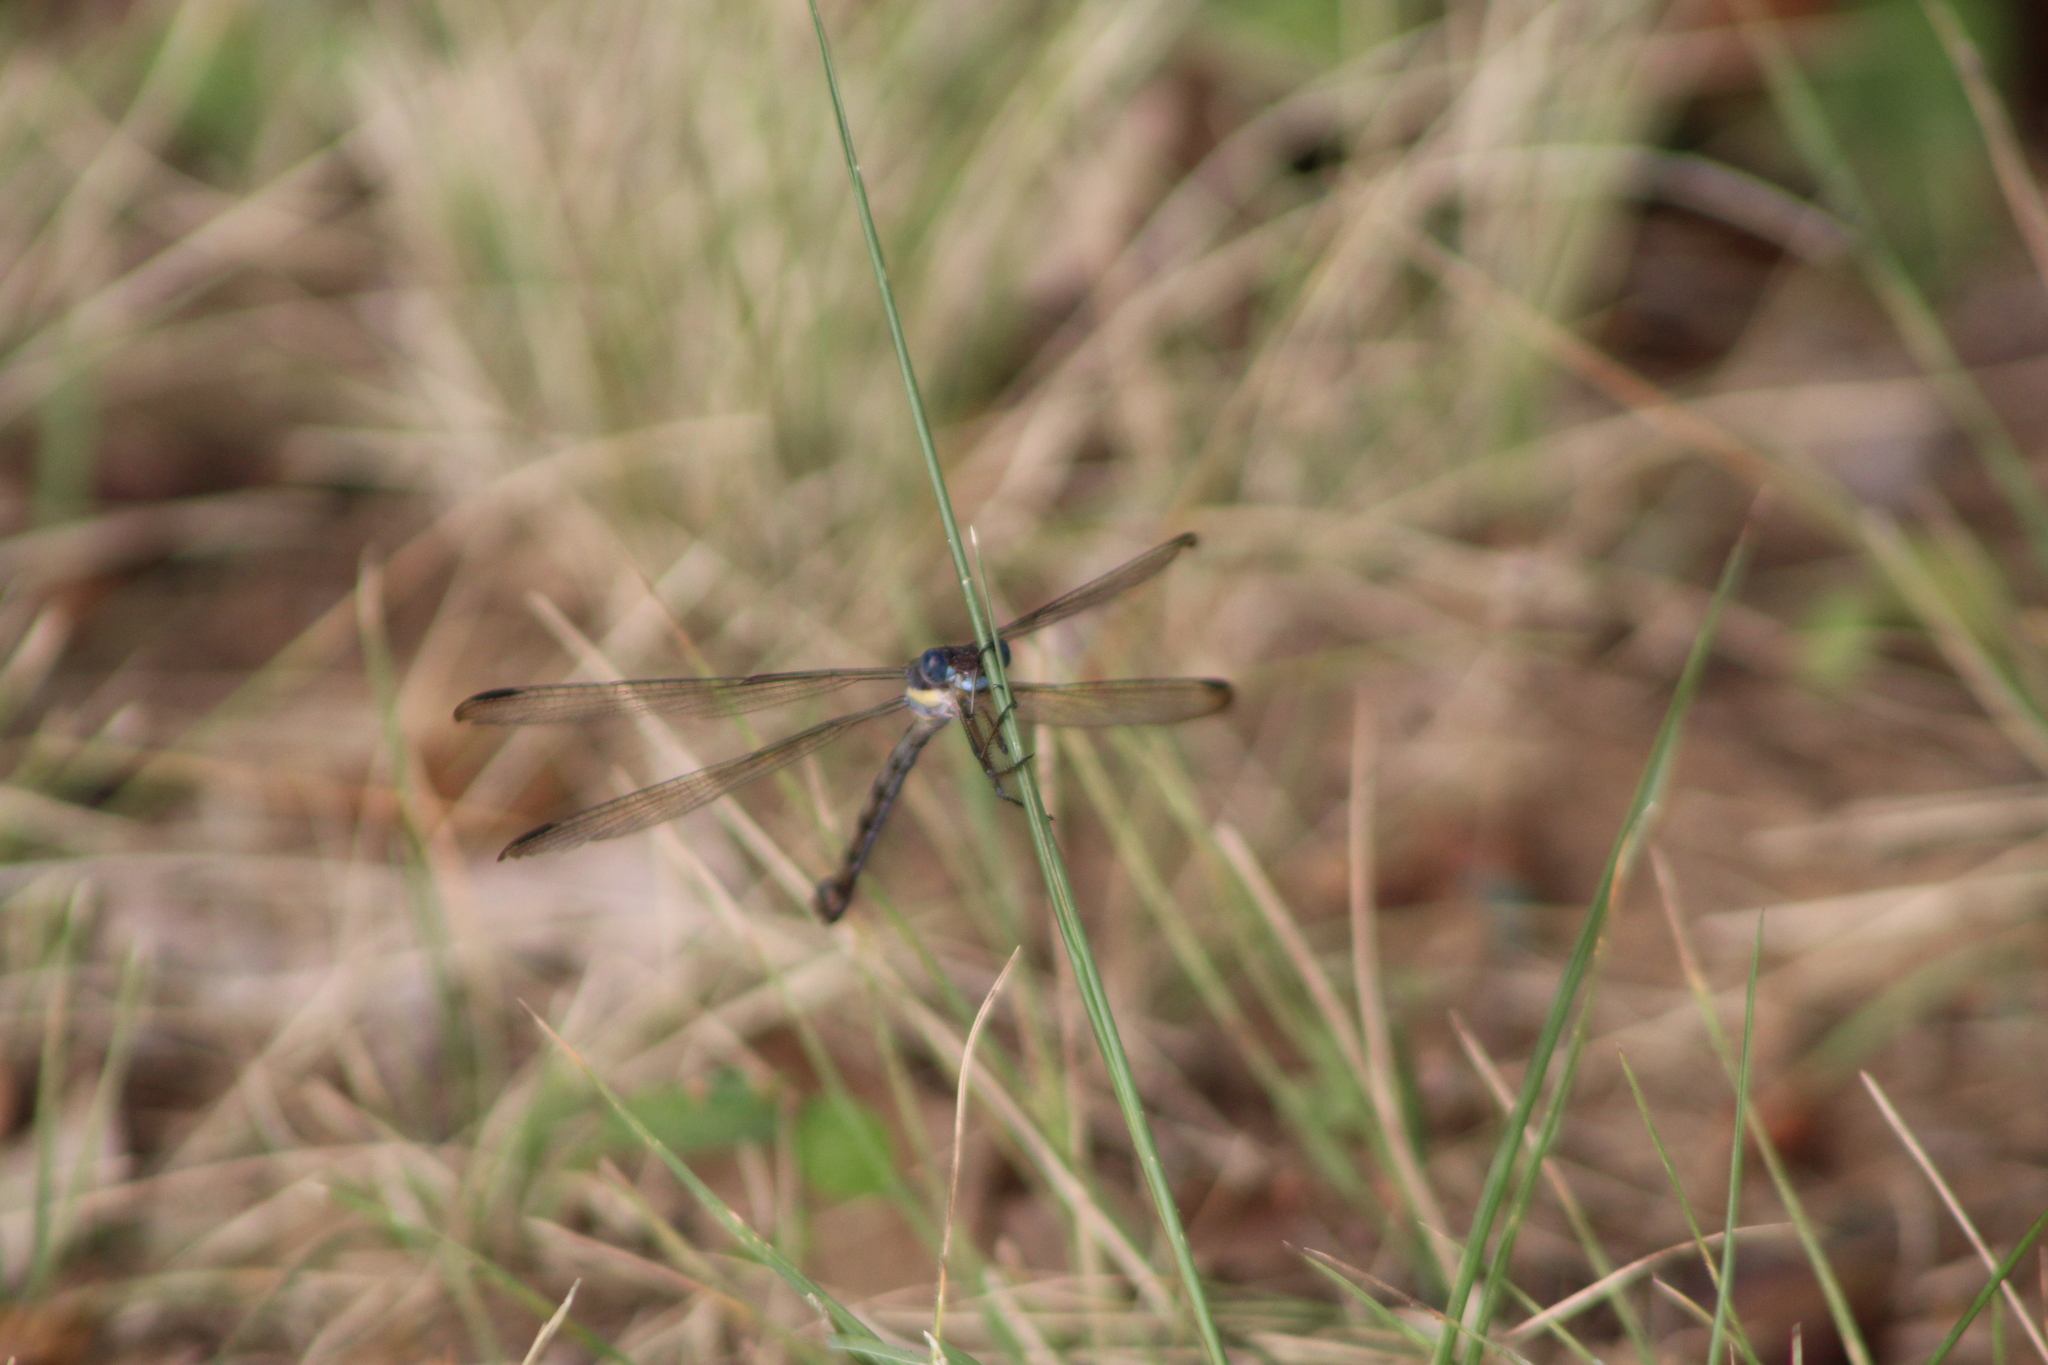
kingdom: Animalia
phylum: Arthropoda
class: Insecta
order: Odonata
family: Lestidae
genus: Archilestes
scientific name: Archilestes grandis
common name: Great spreadwing
